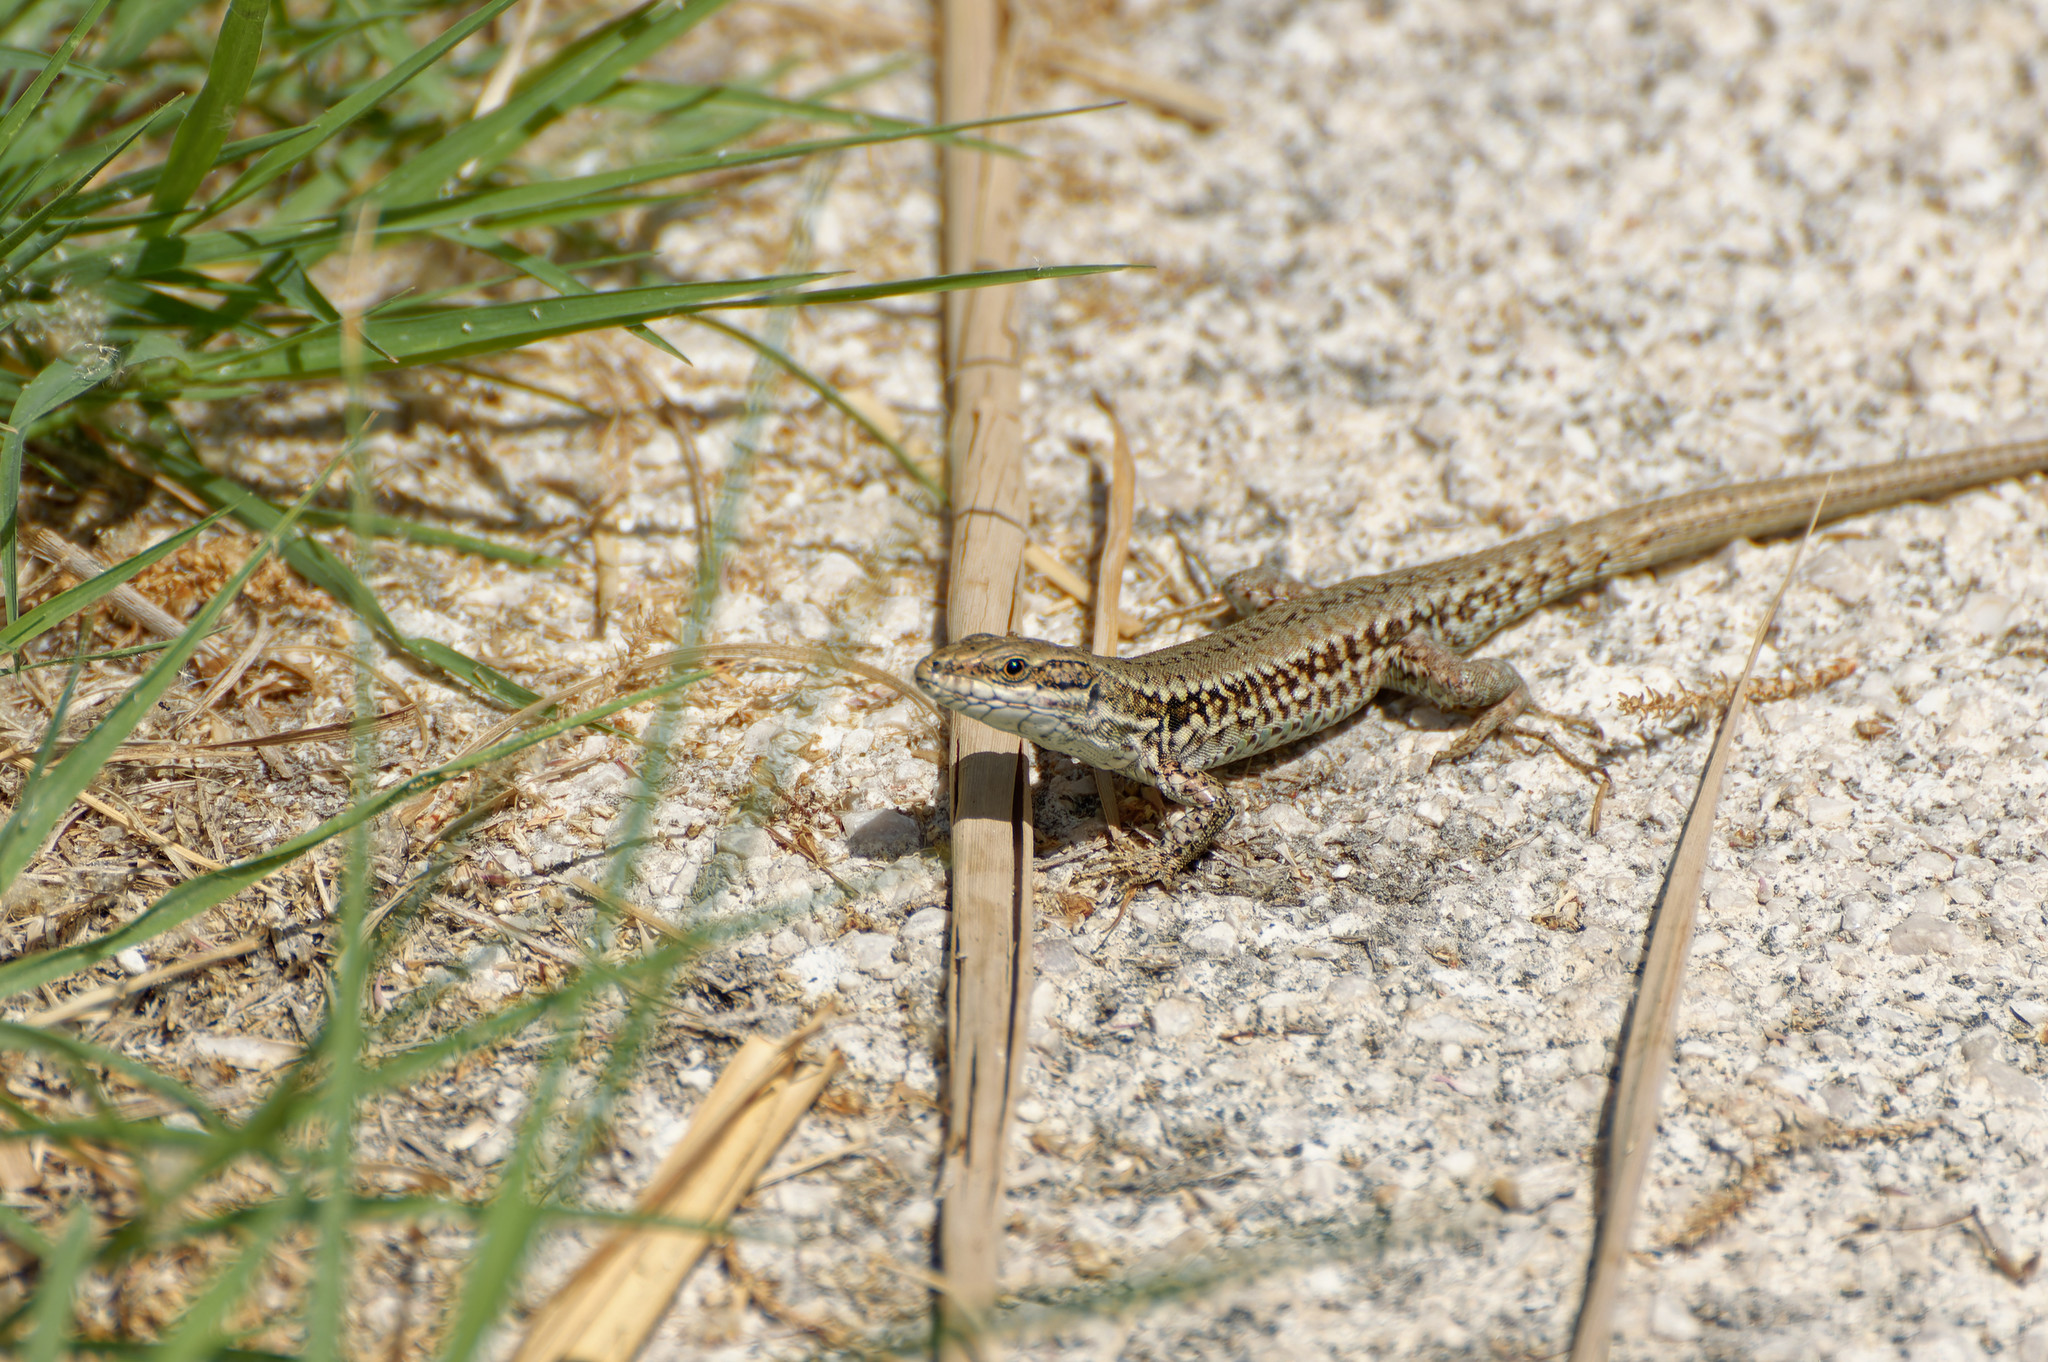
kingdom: Animalia
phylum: Chordata
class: Squamata
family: Lacertidae
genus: Podarcis
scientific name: Podarcis muralis
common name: Common wall lizard
